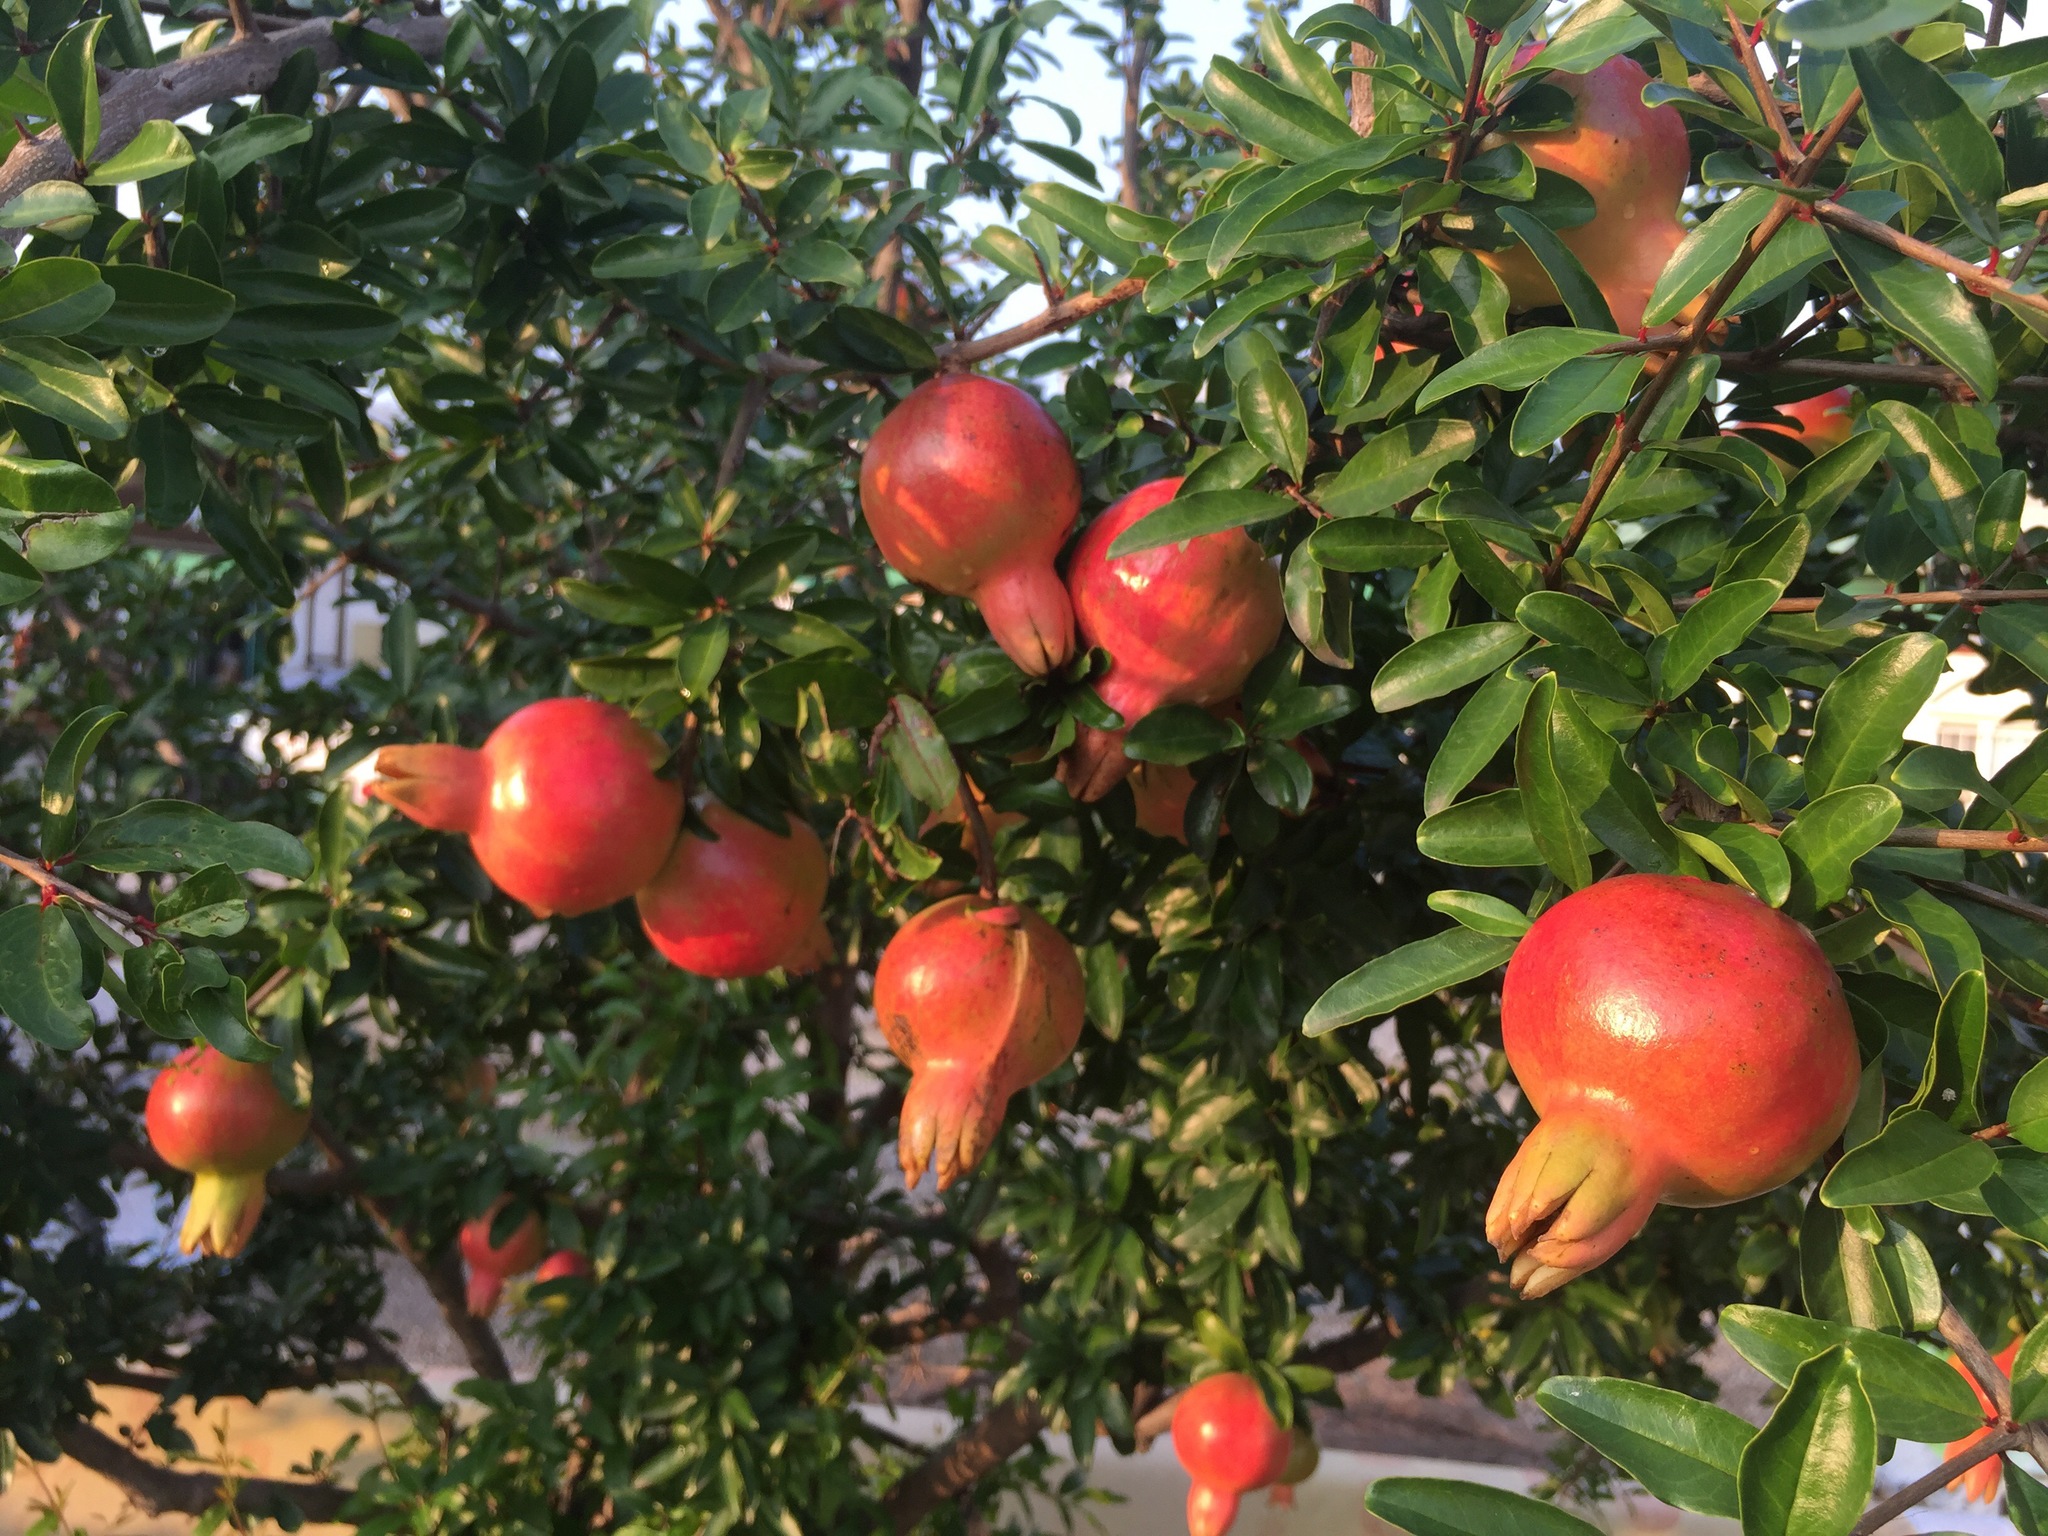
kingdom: Plantae
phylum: Tracheophyta
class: Magnoliopsida
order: Myrtales
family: Lythraceae
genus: Punica
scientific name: Punica granatum
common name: Pomegranate
